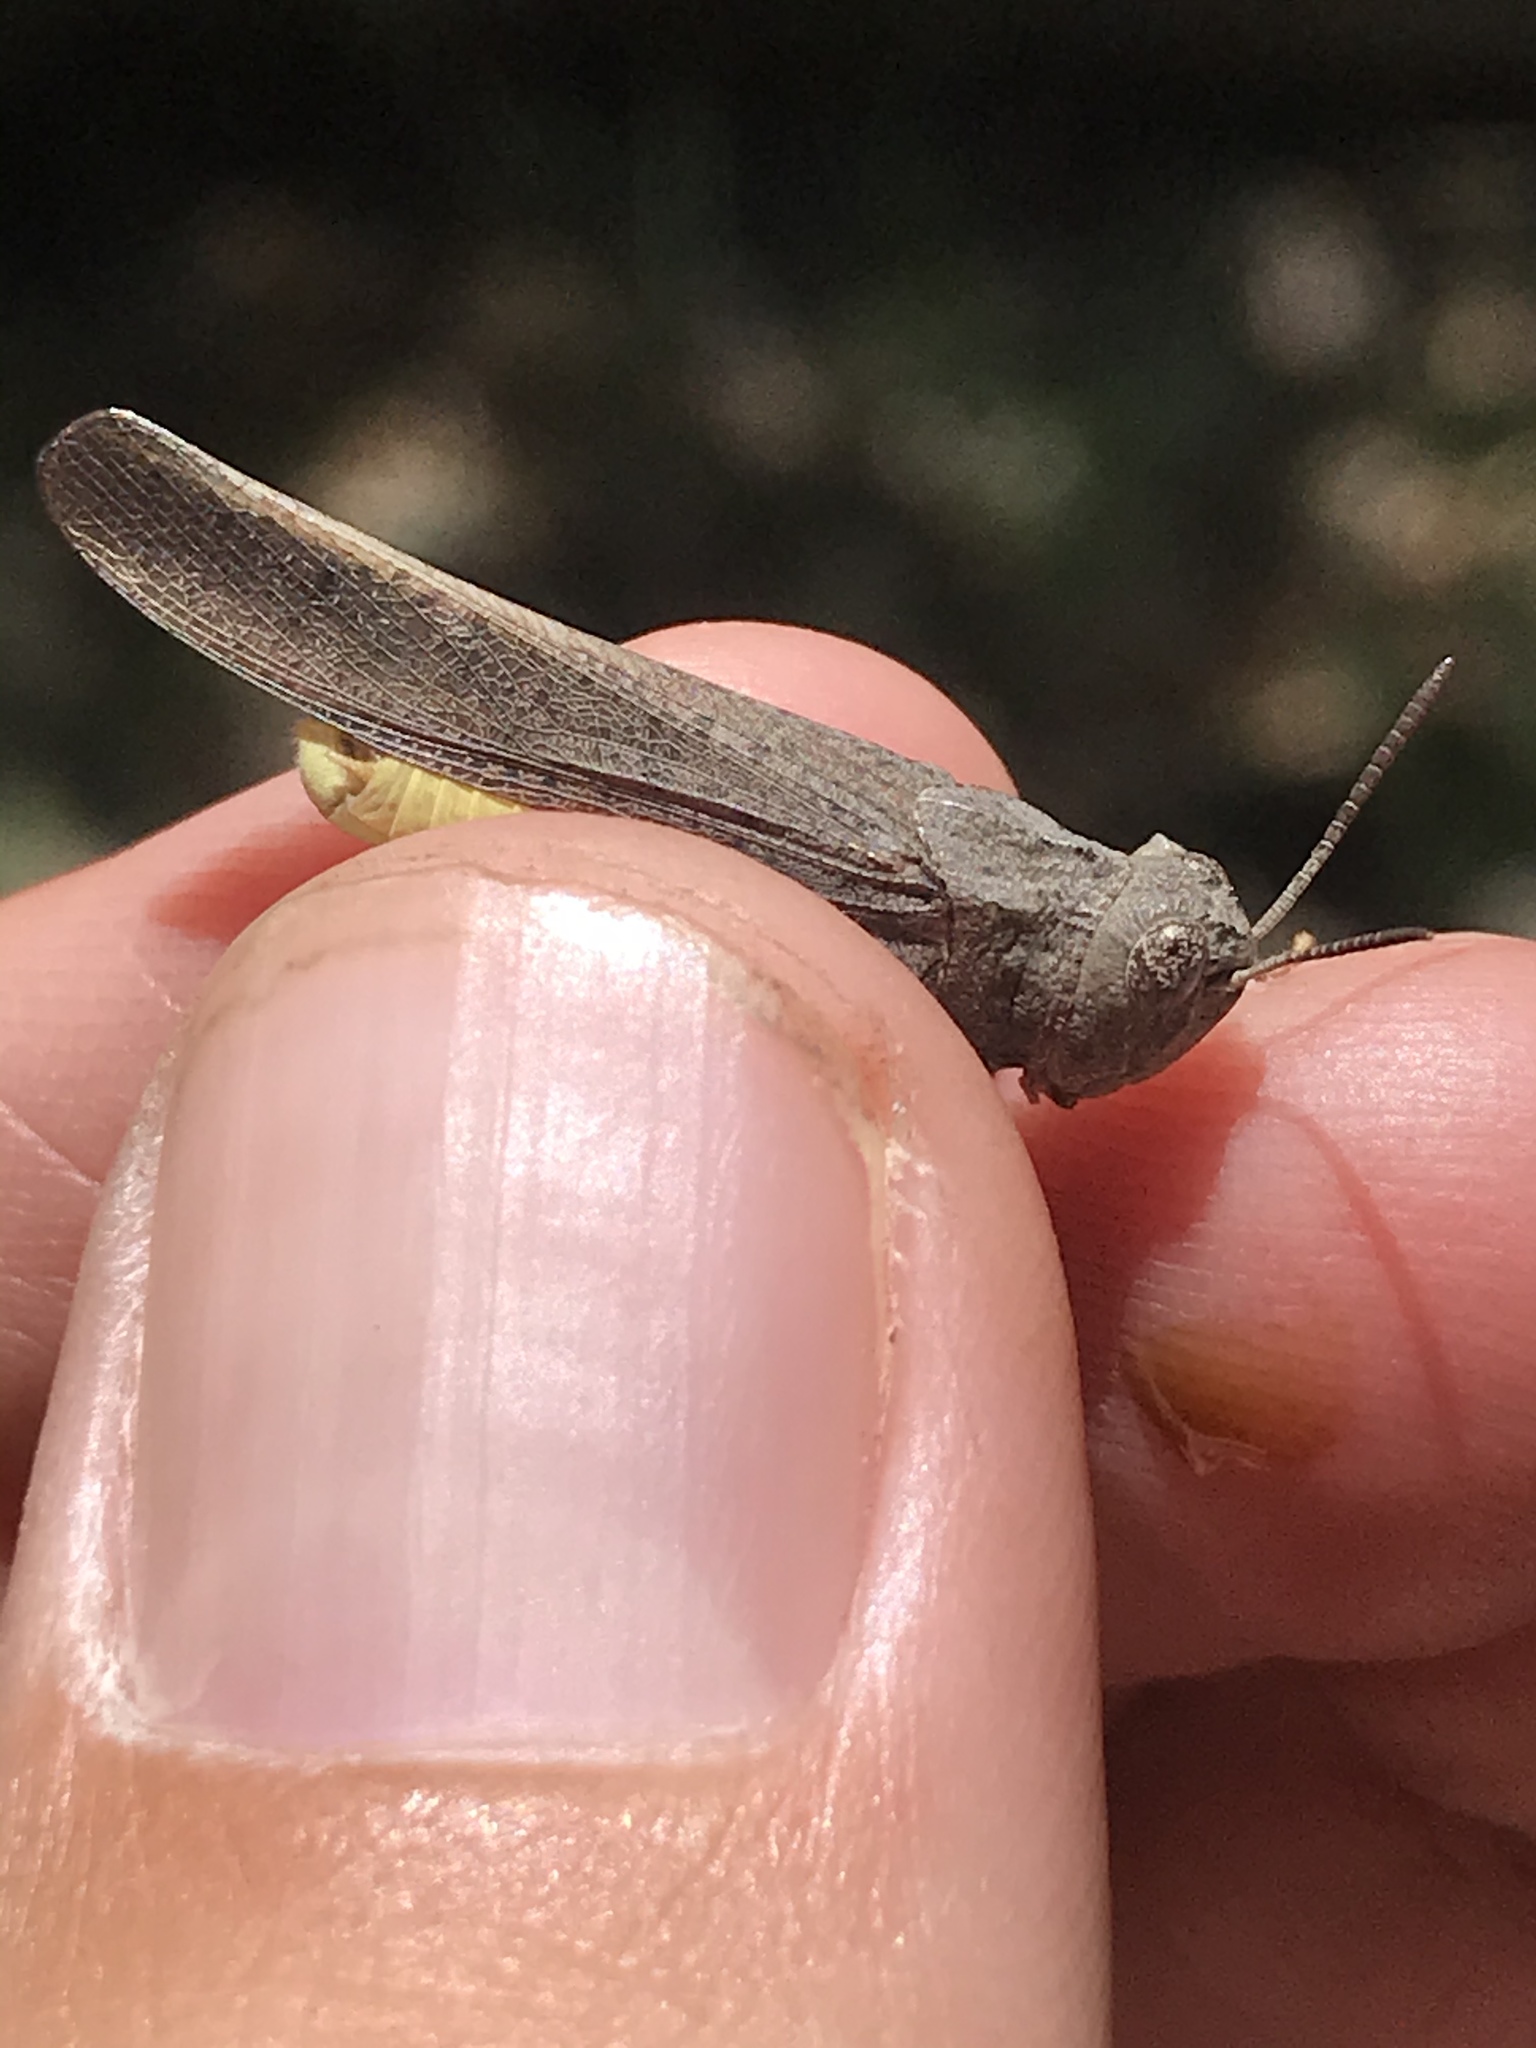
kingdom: Animalia
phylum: Arthropoda
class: Insecta
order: Orthoptera
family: Acrididae
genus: Arphia
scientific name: Arphia conspersa
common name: Speckle-winged rangeland grasshopper
